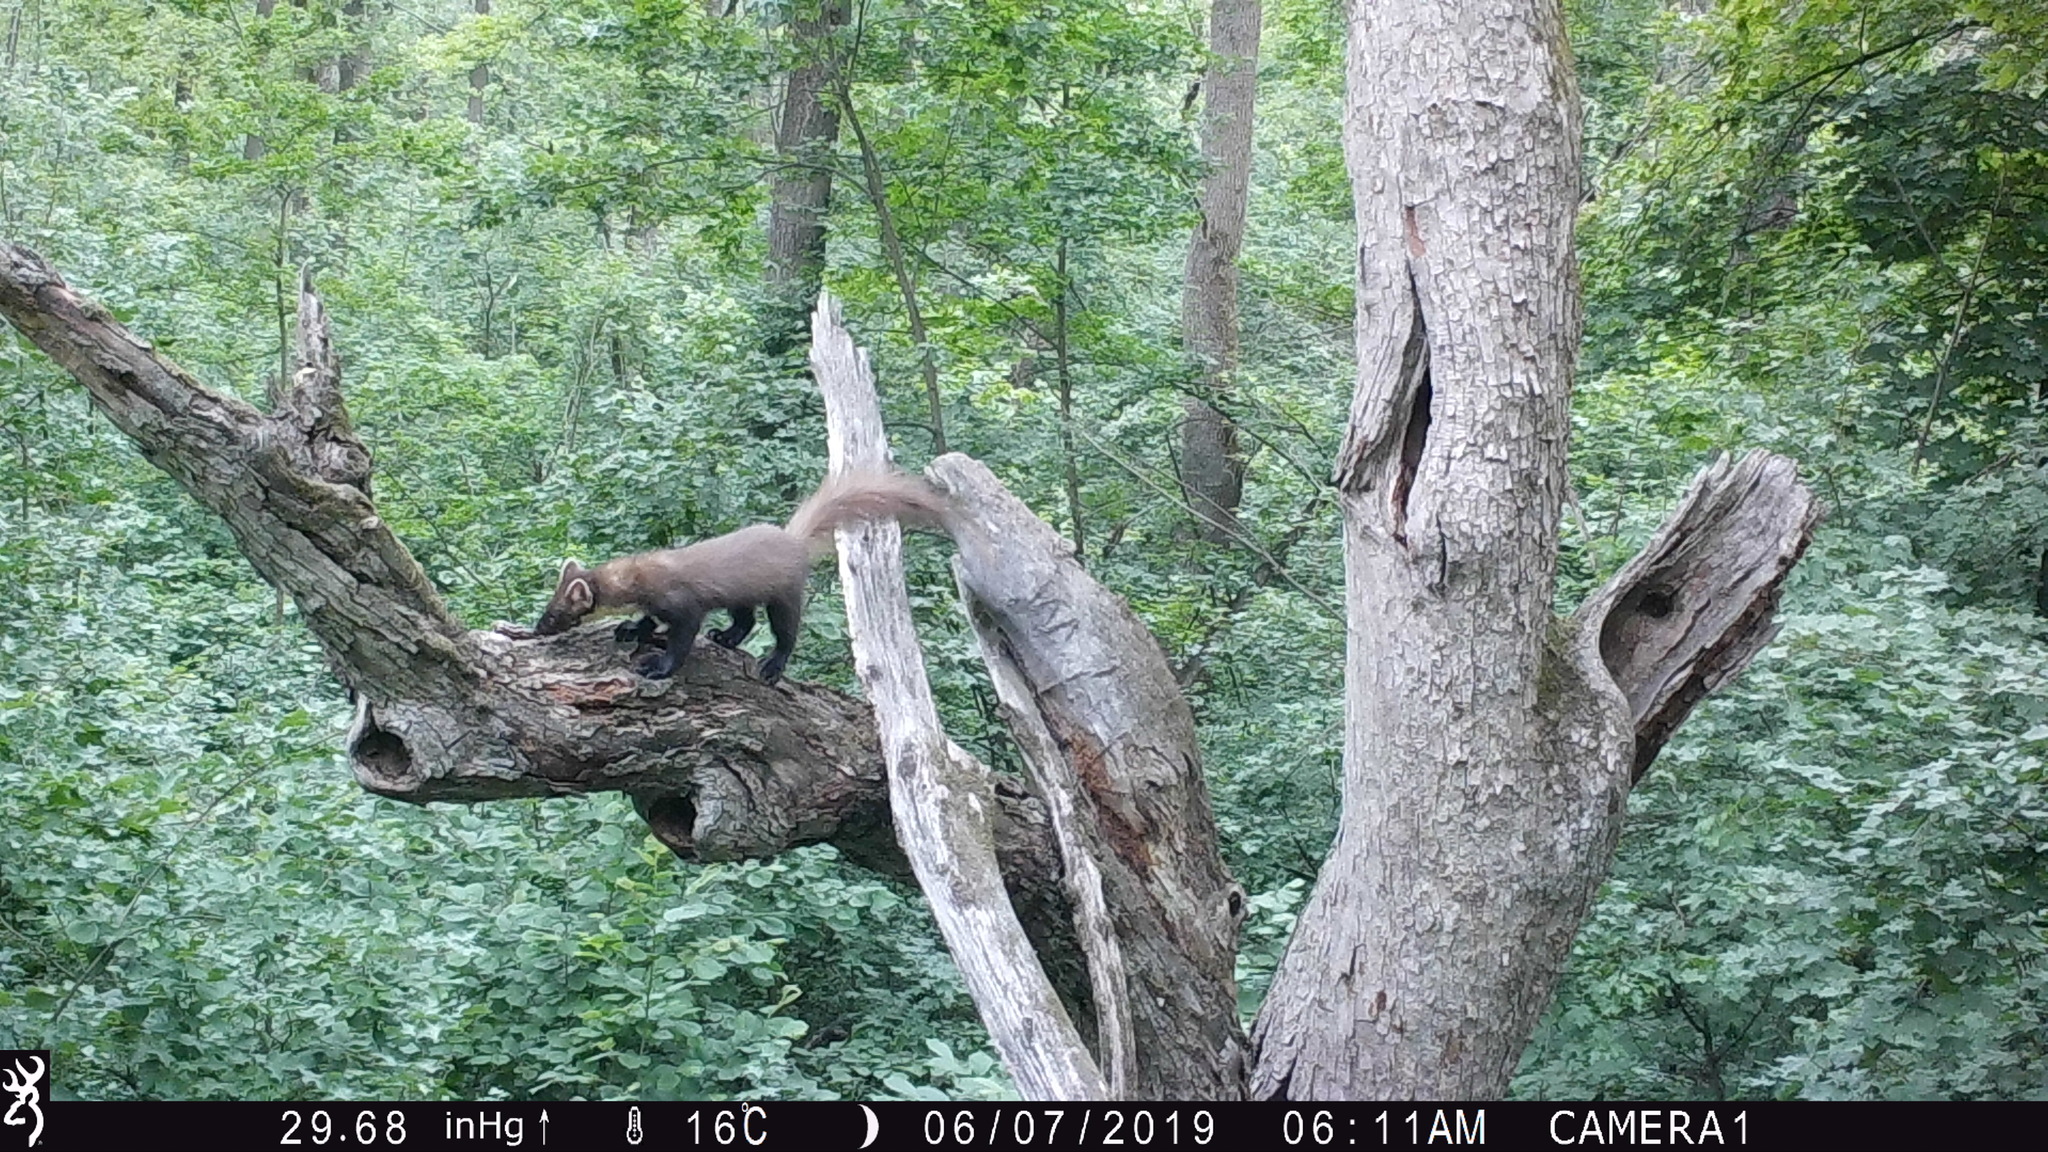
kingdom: Animalia
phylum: Chordata
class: Mammalia
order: Carnivora
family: Mustelidae
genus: Martes
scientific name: Martes martes
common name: European pine marten
